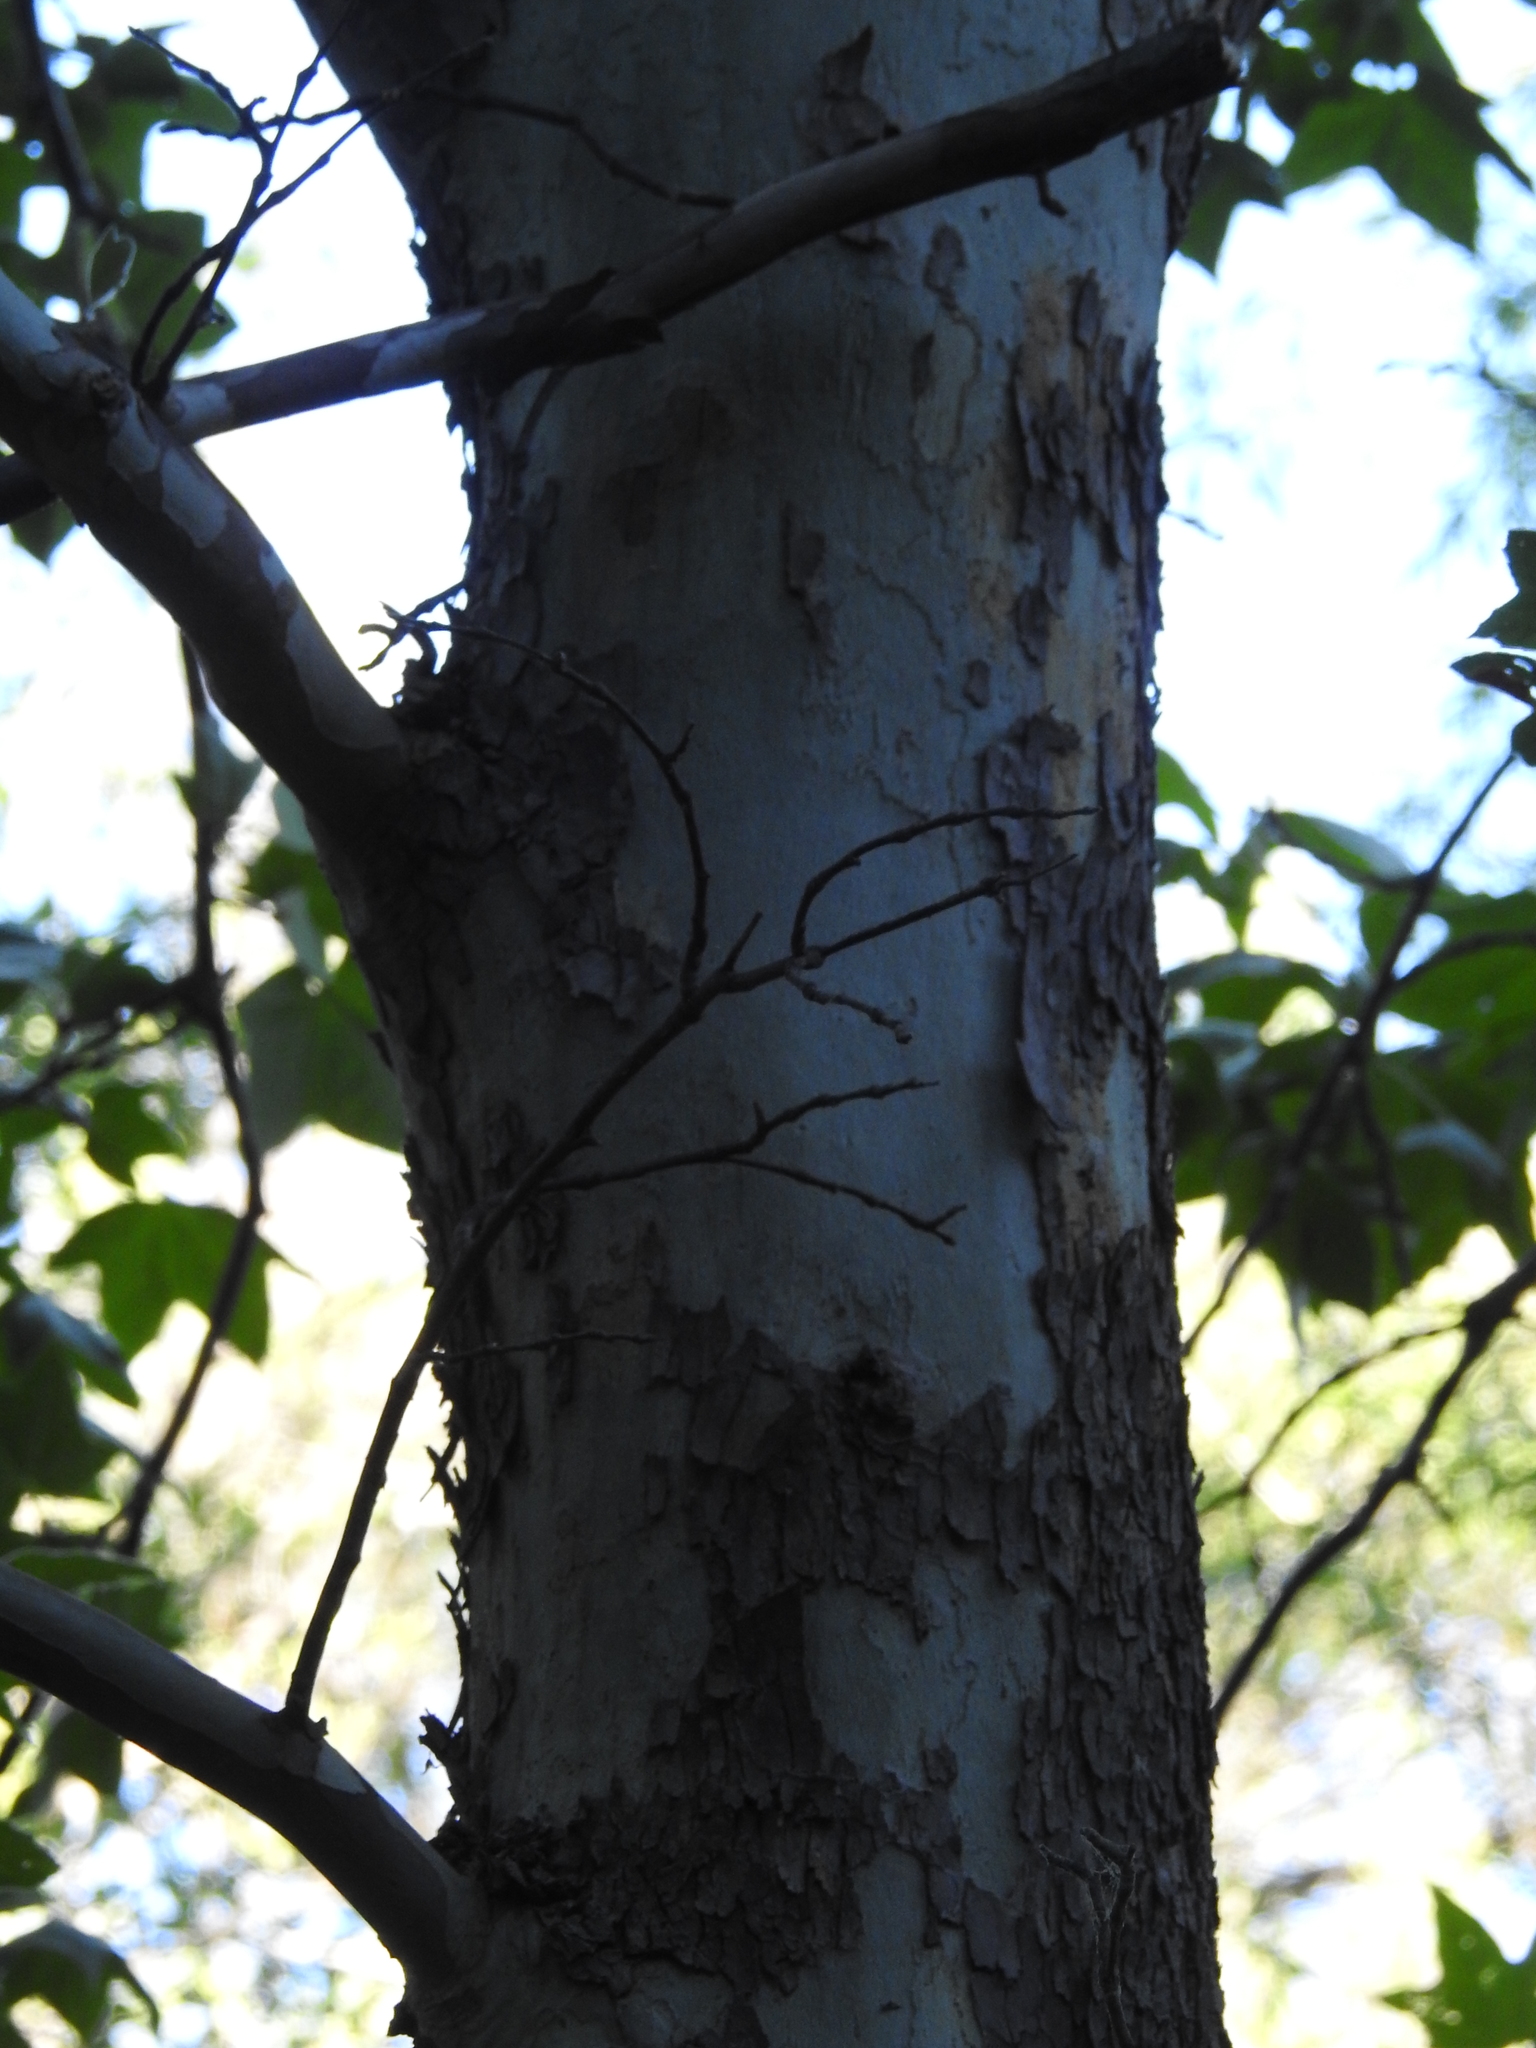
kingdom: Plantae
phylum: Tracheophyta
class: Magnoliopsida
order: Proteales
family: Platanaceae
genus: Platanus
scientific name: Platanus wrightii
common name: Arizona sycamore
